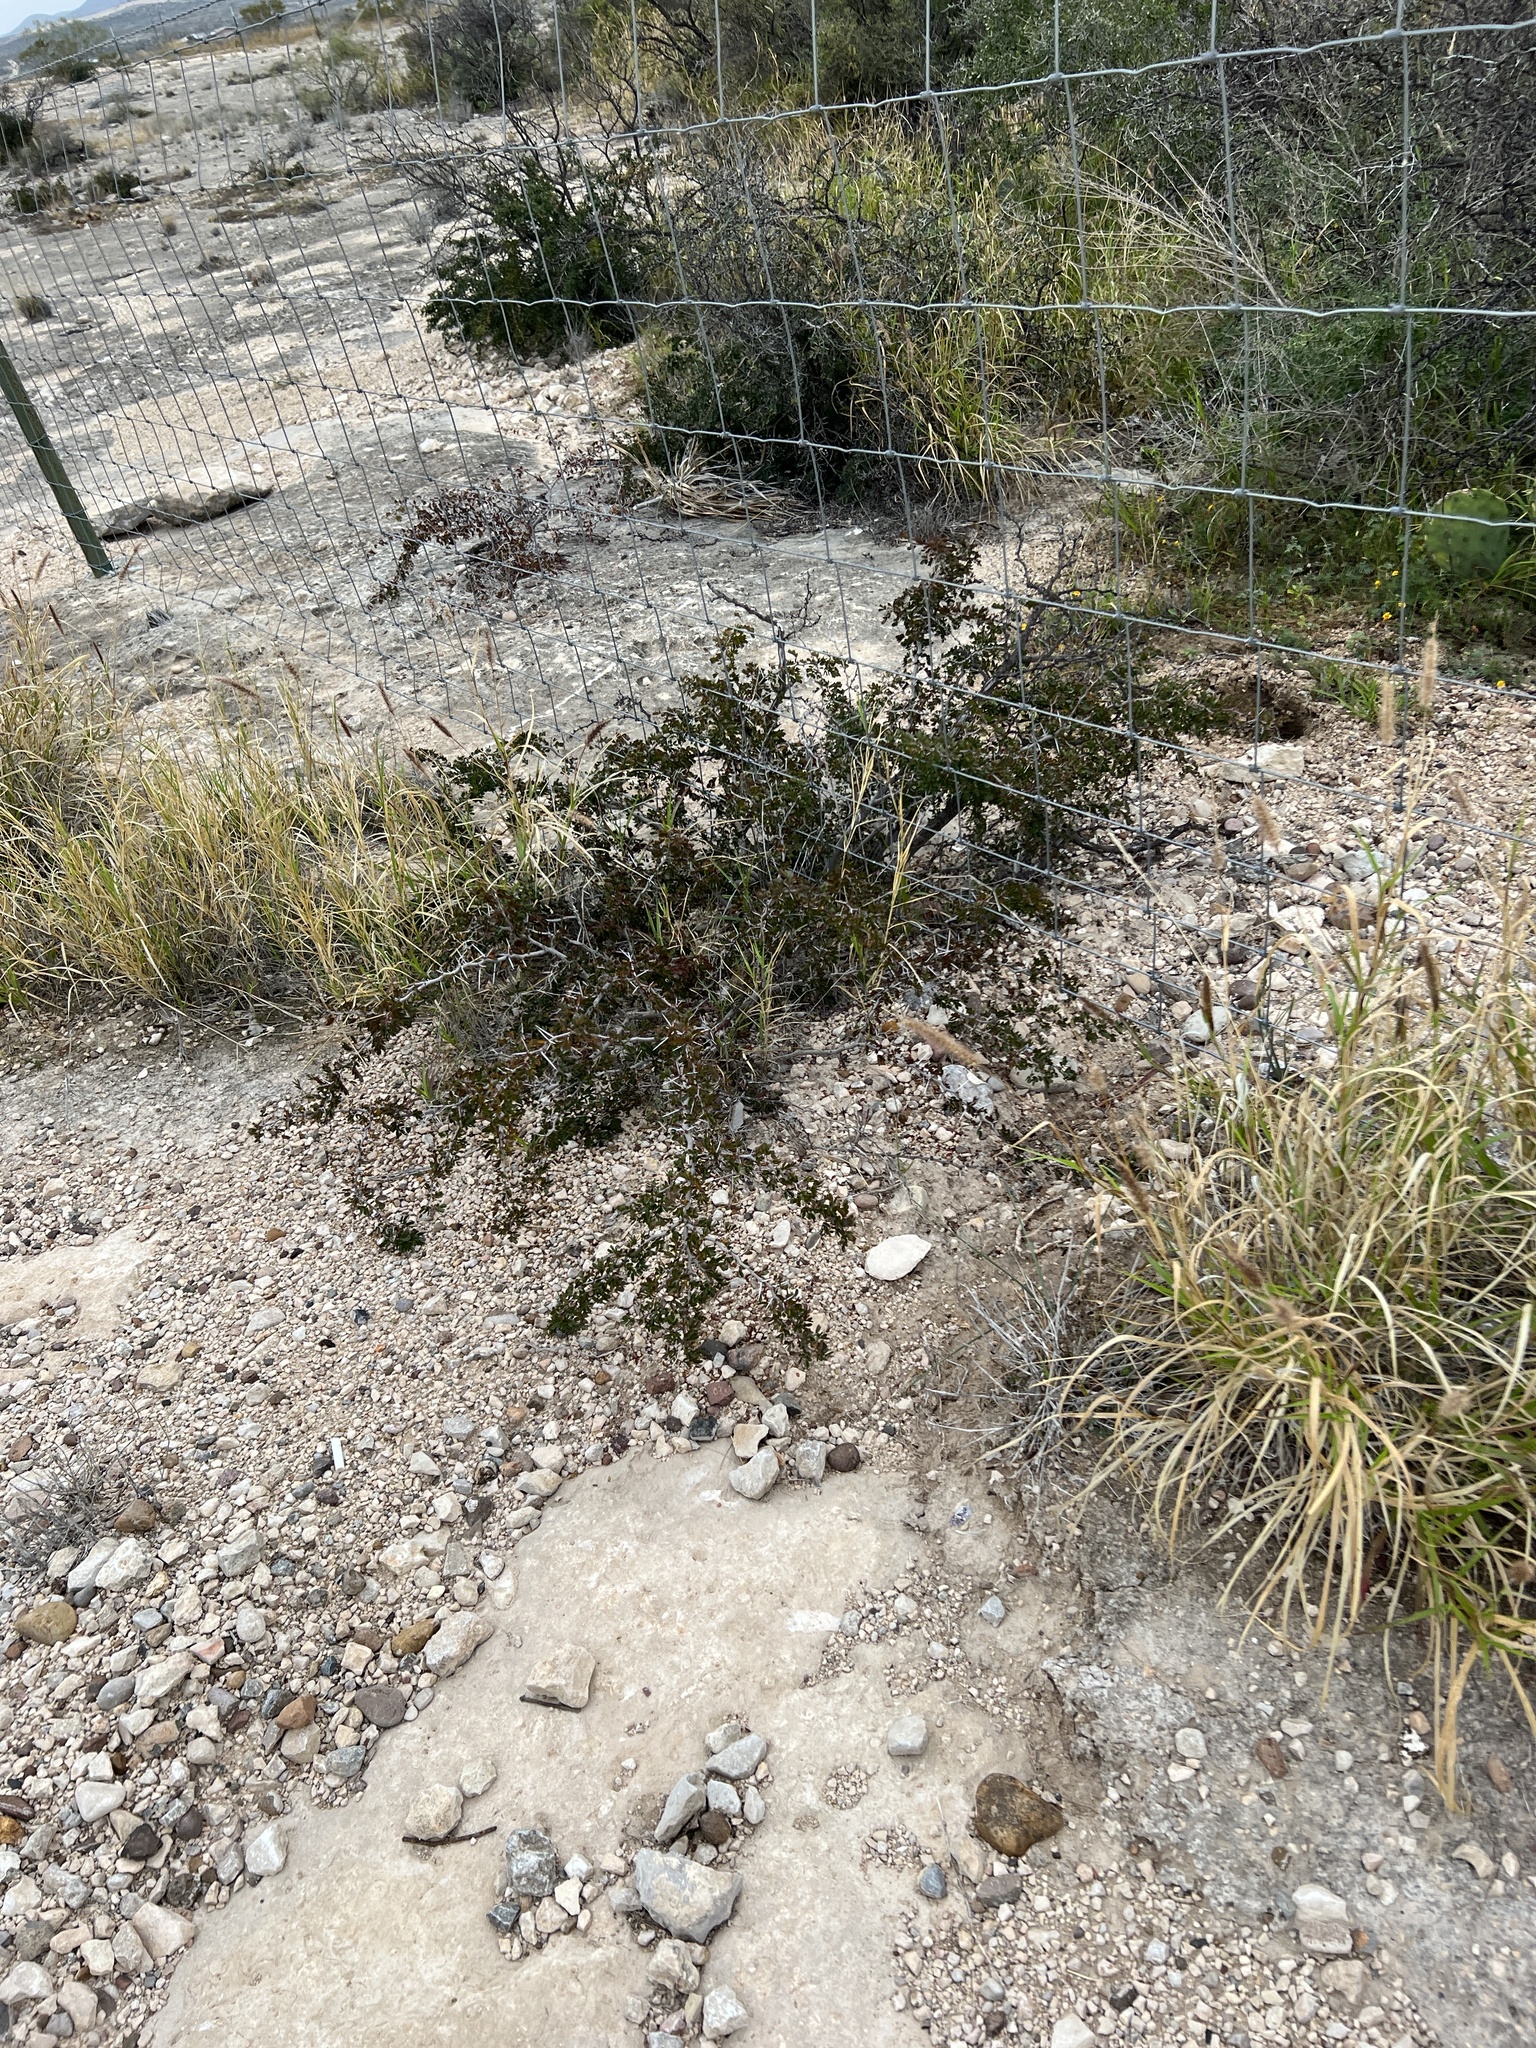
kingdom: Plantae
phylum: Tracheophyta
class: Magnoliopsida
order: Fabales
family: Fabaceae
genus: Vachellia
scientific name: Vachellia rigidula
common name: Blackbrush
